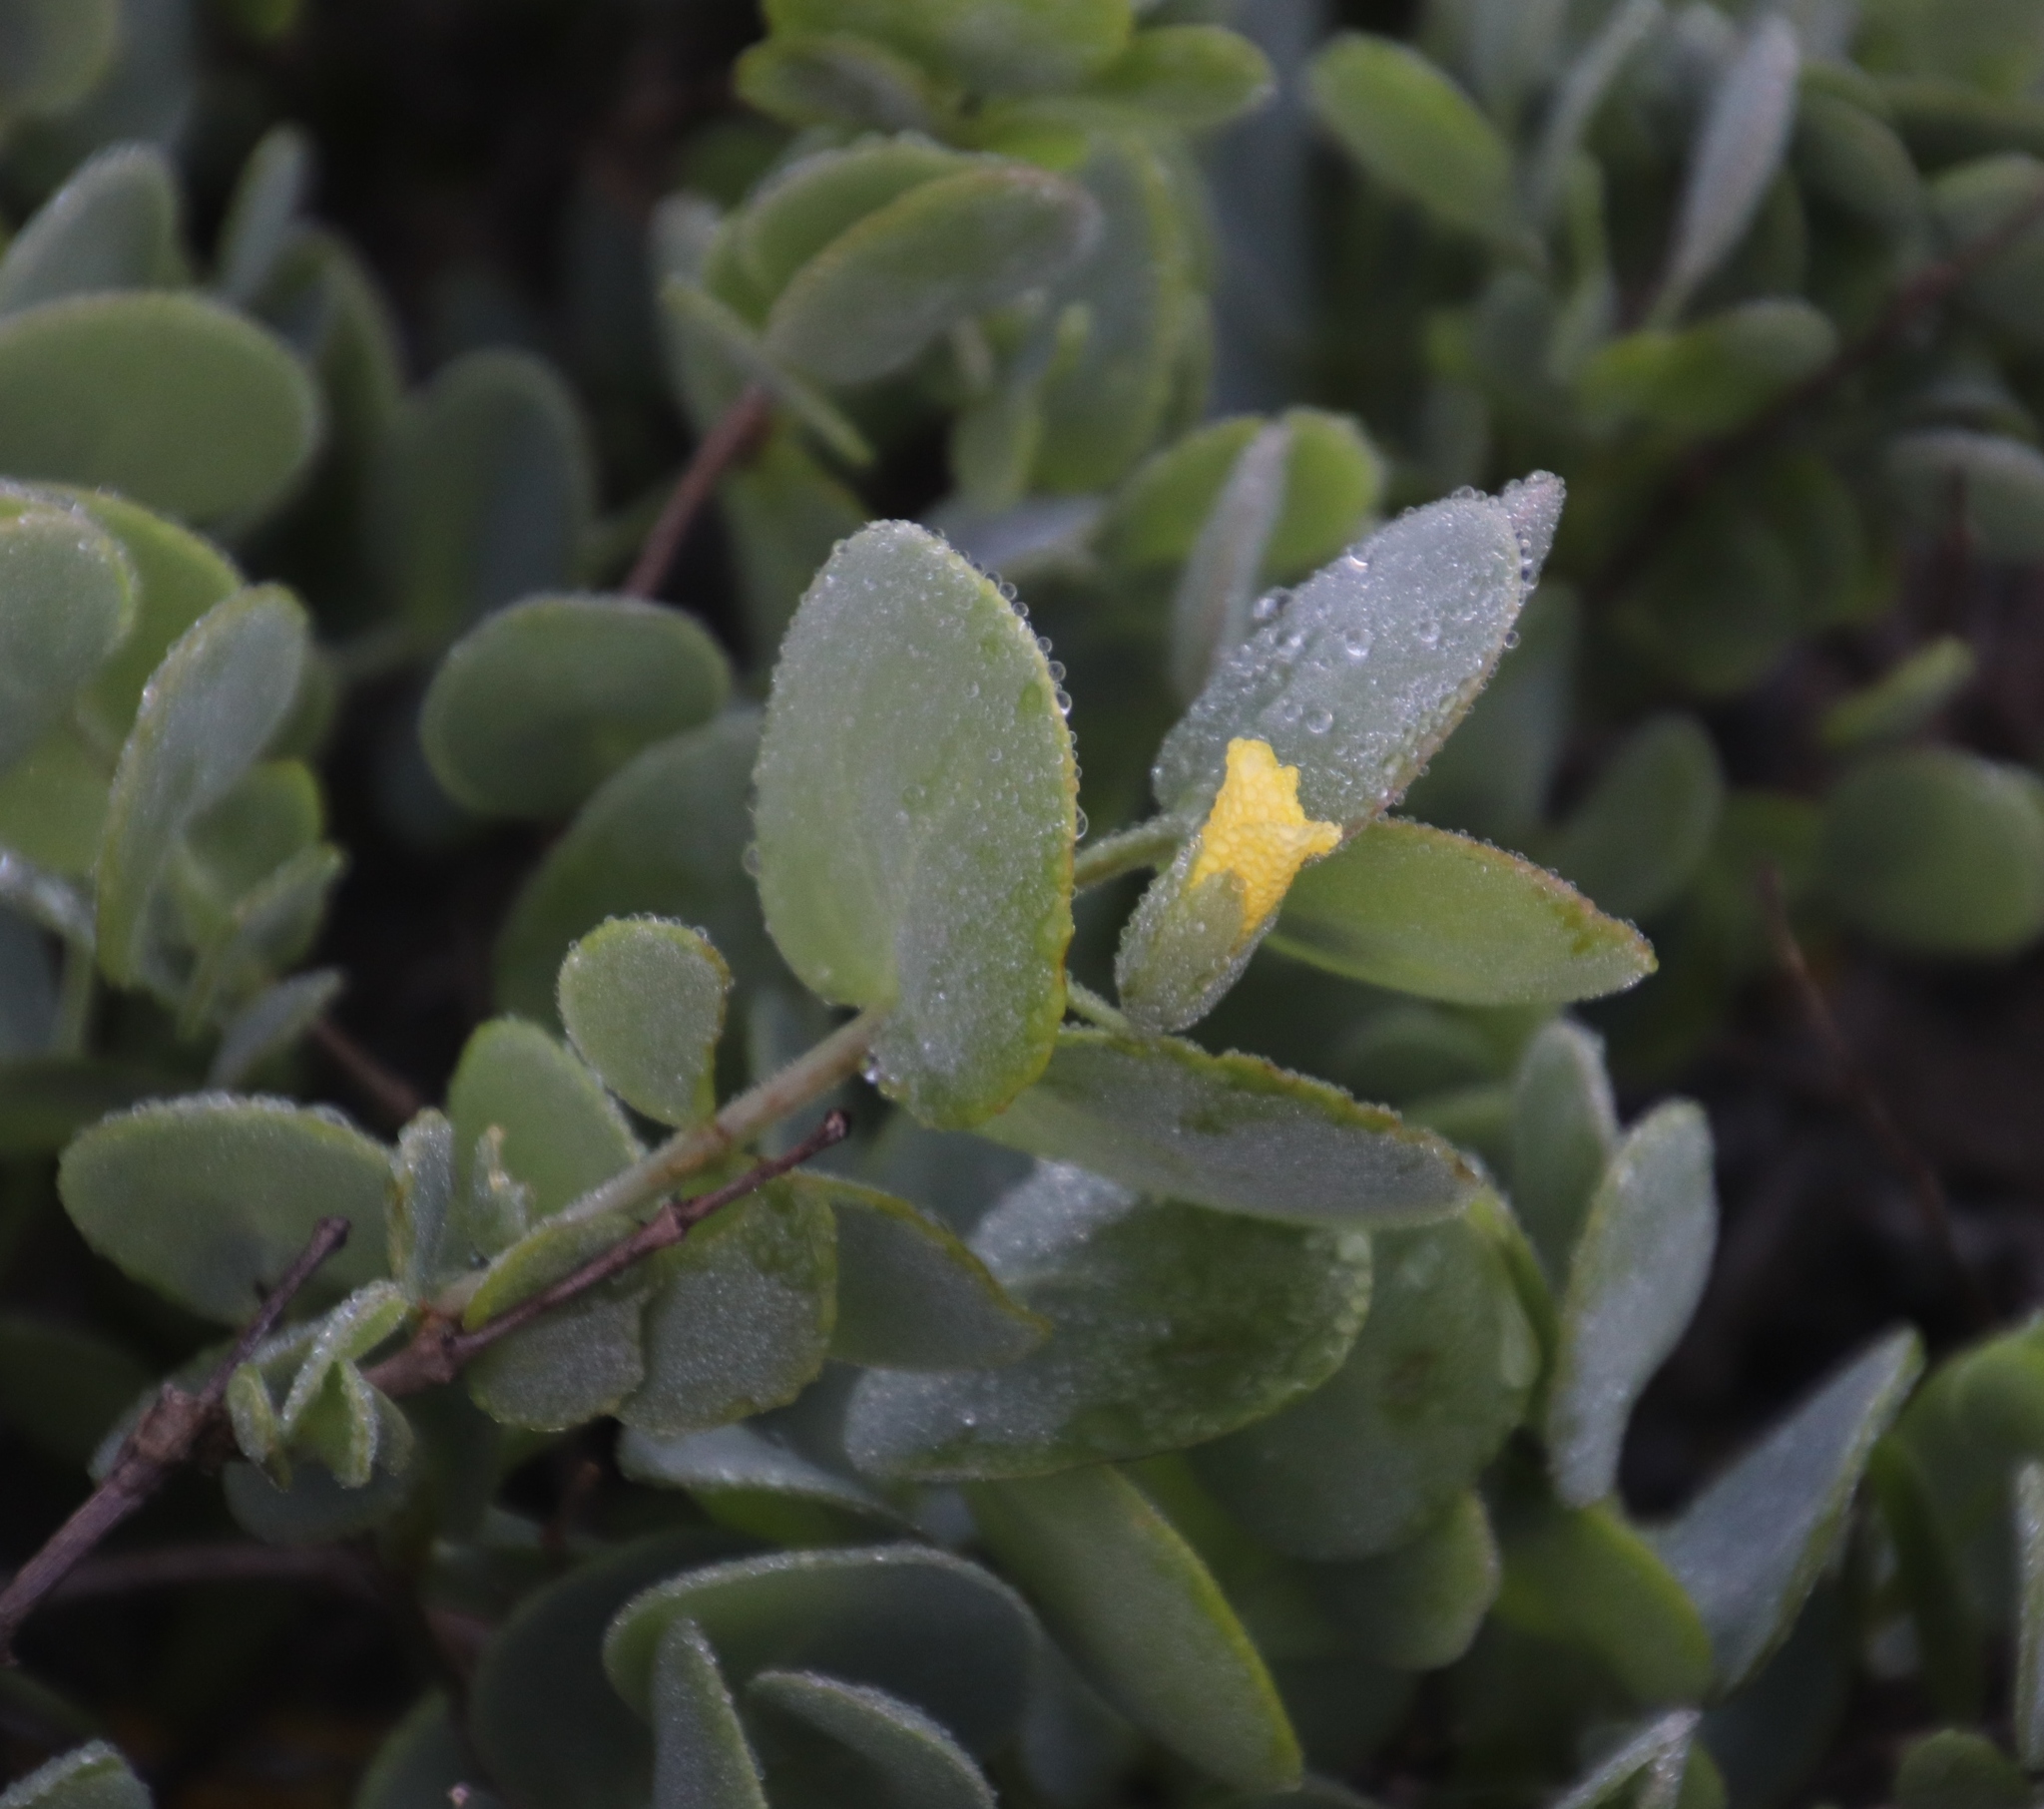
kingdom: Plantae
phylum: Tracheophyta
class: Magnoliopsida
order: Zygophyllales
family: Zygophyllaceae
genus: Roepera
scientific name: Roepera cordifolia
